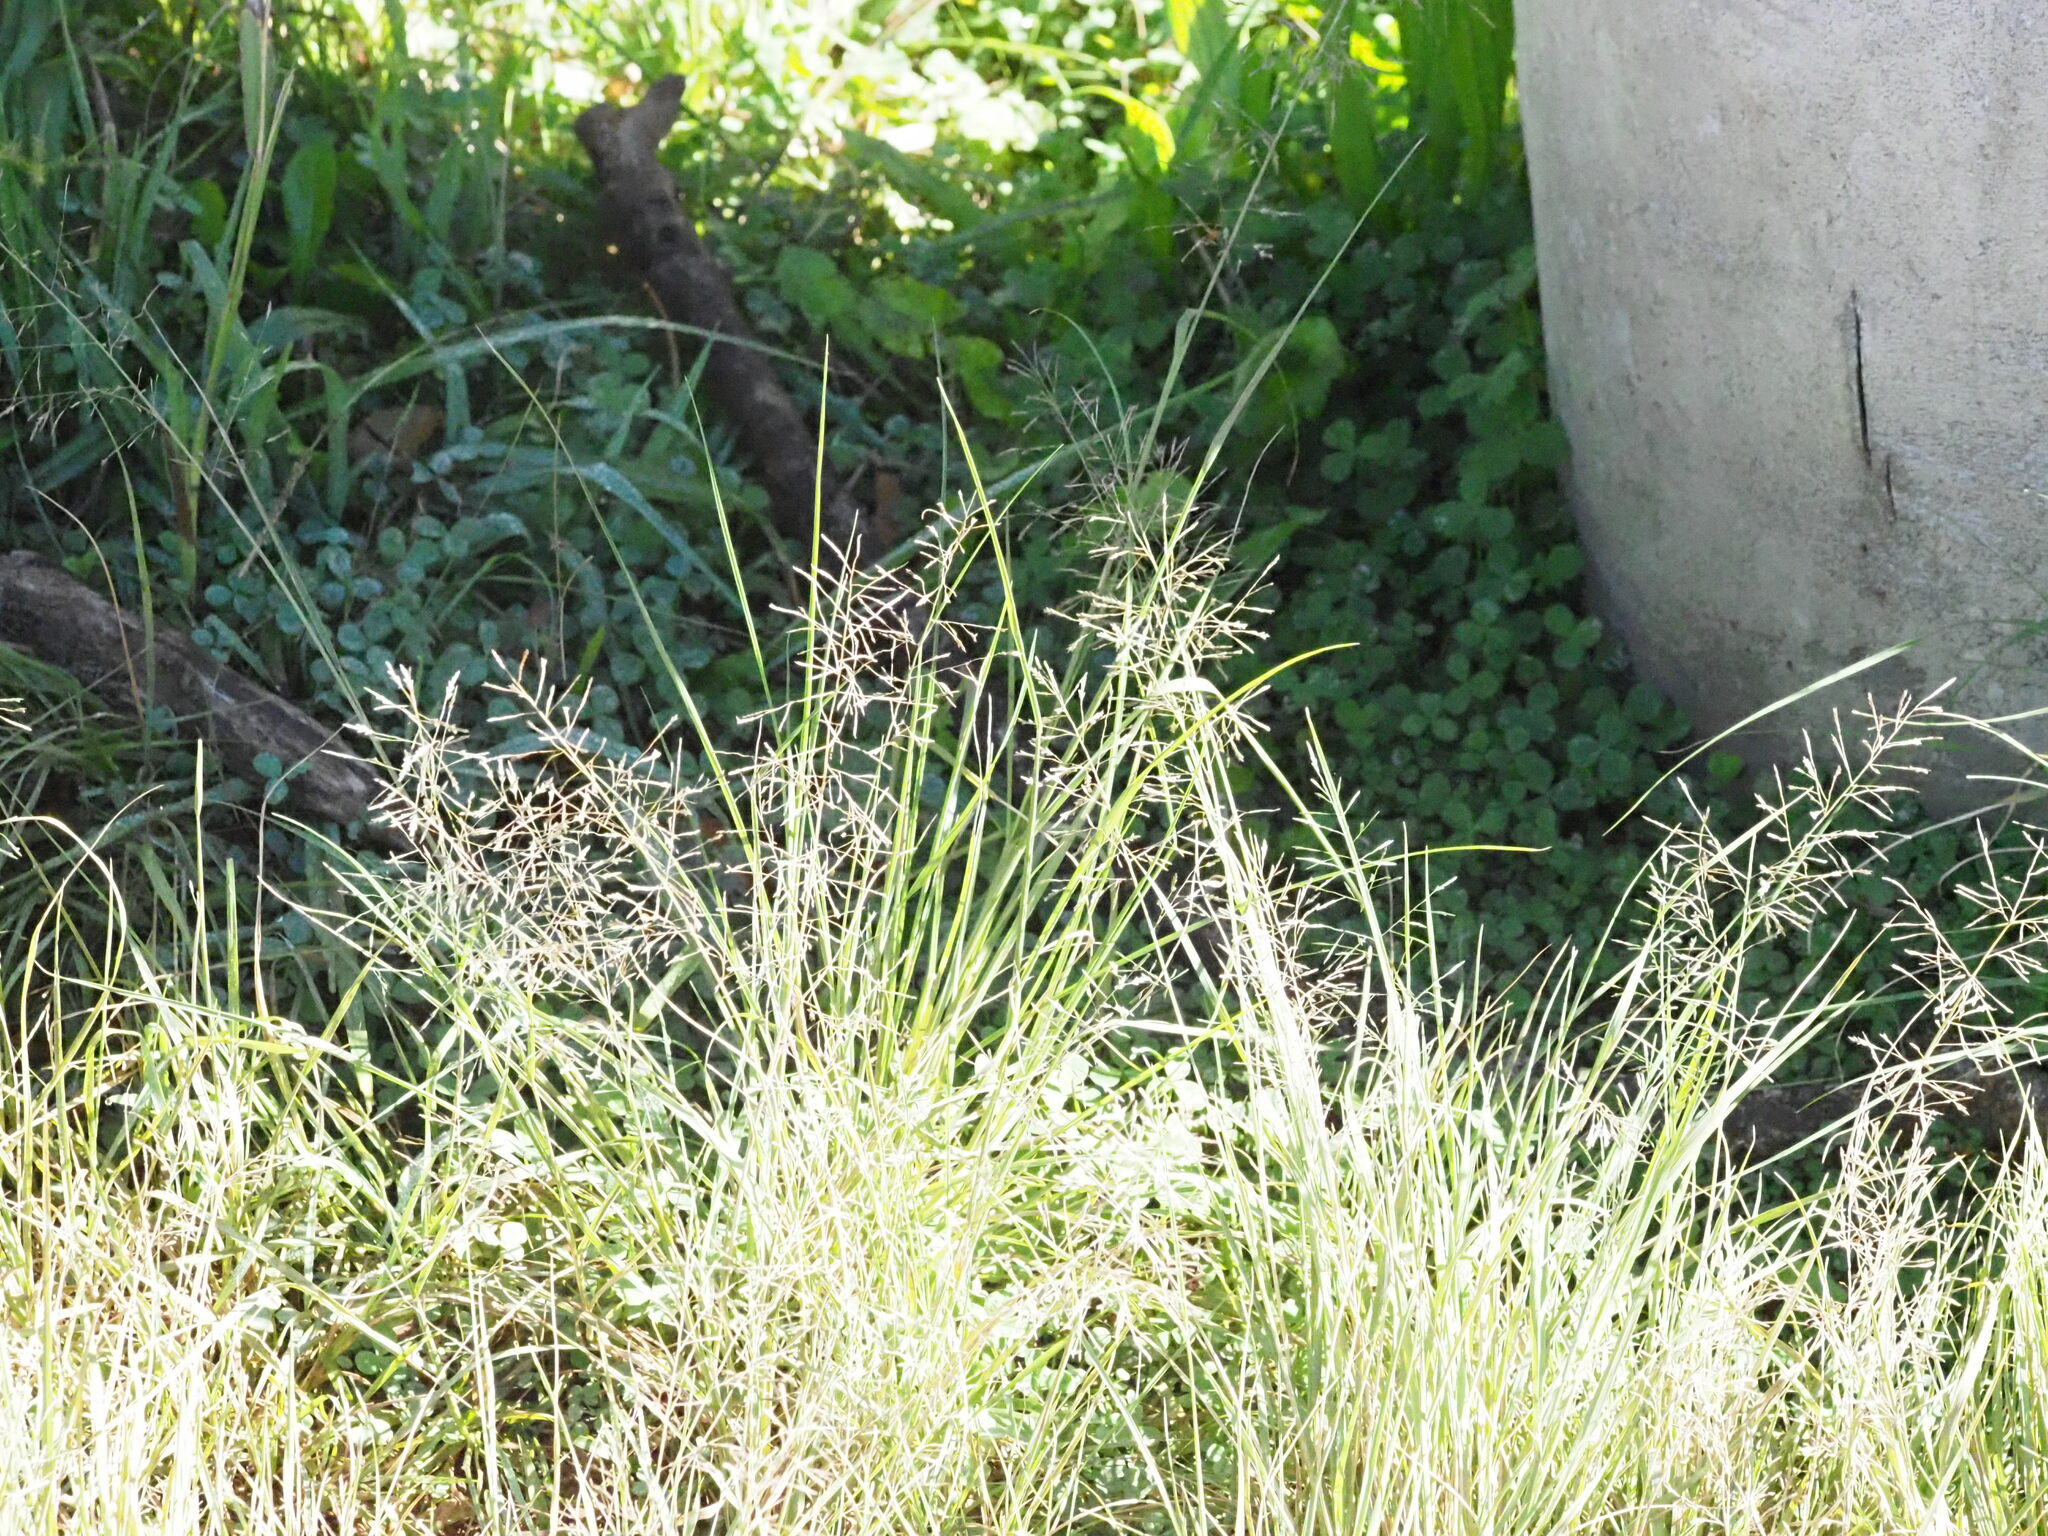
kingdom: Plantae
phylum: Tracheophyta
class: Liliopsida
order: Poales
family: Poaceae
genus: Eragrostis
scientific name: Eragrostis tenuifolia
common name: Elastic grass
